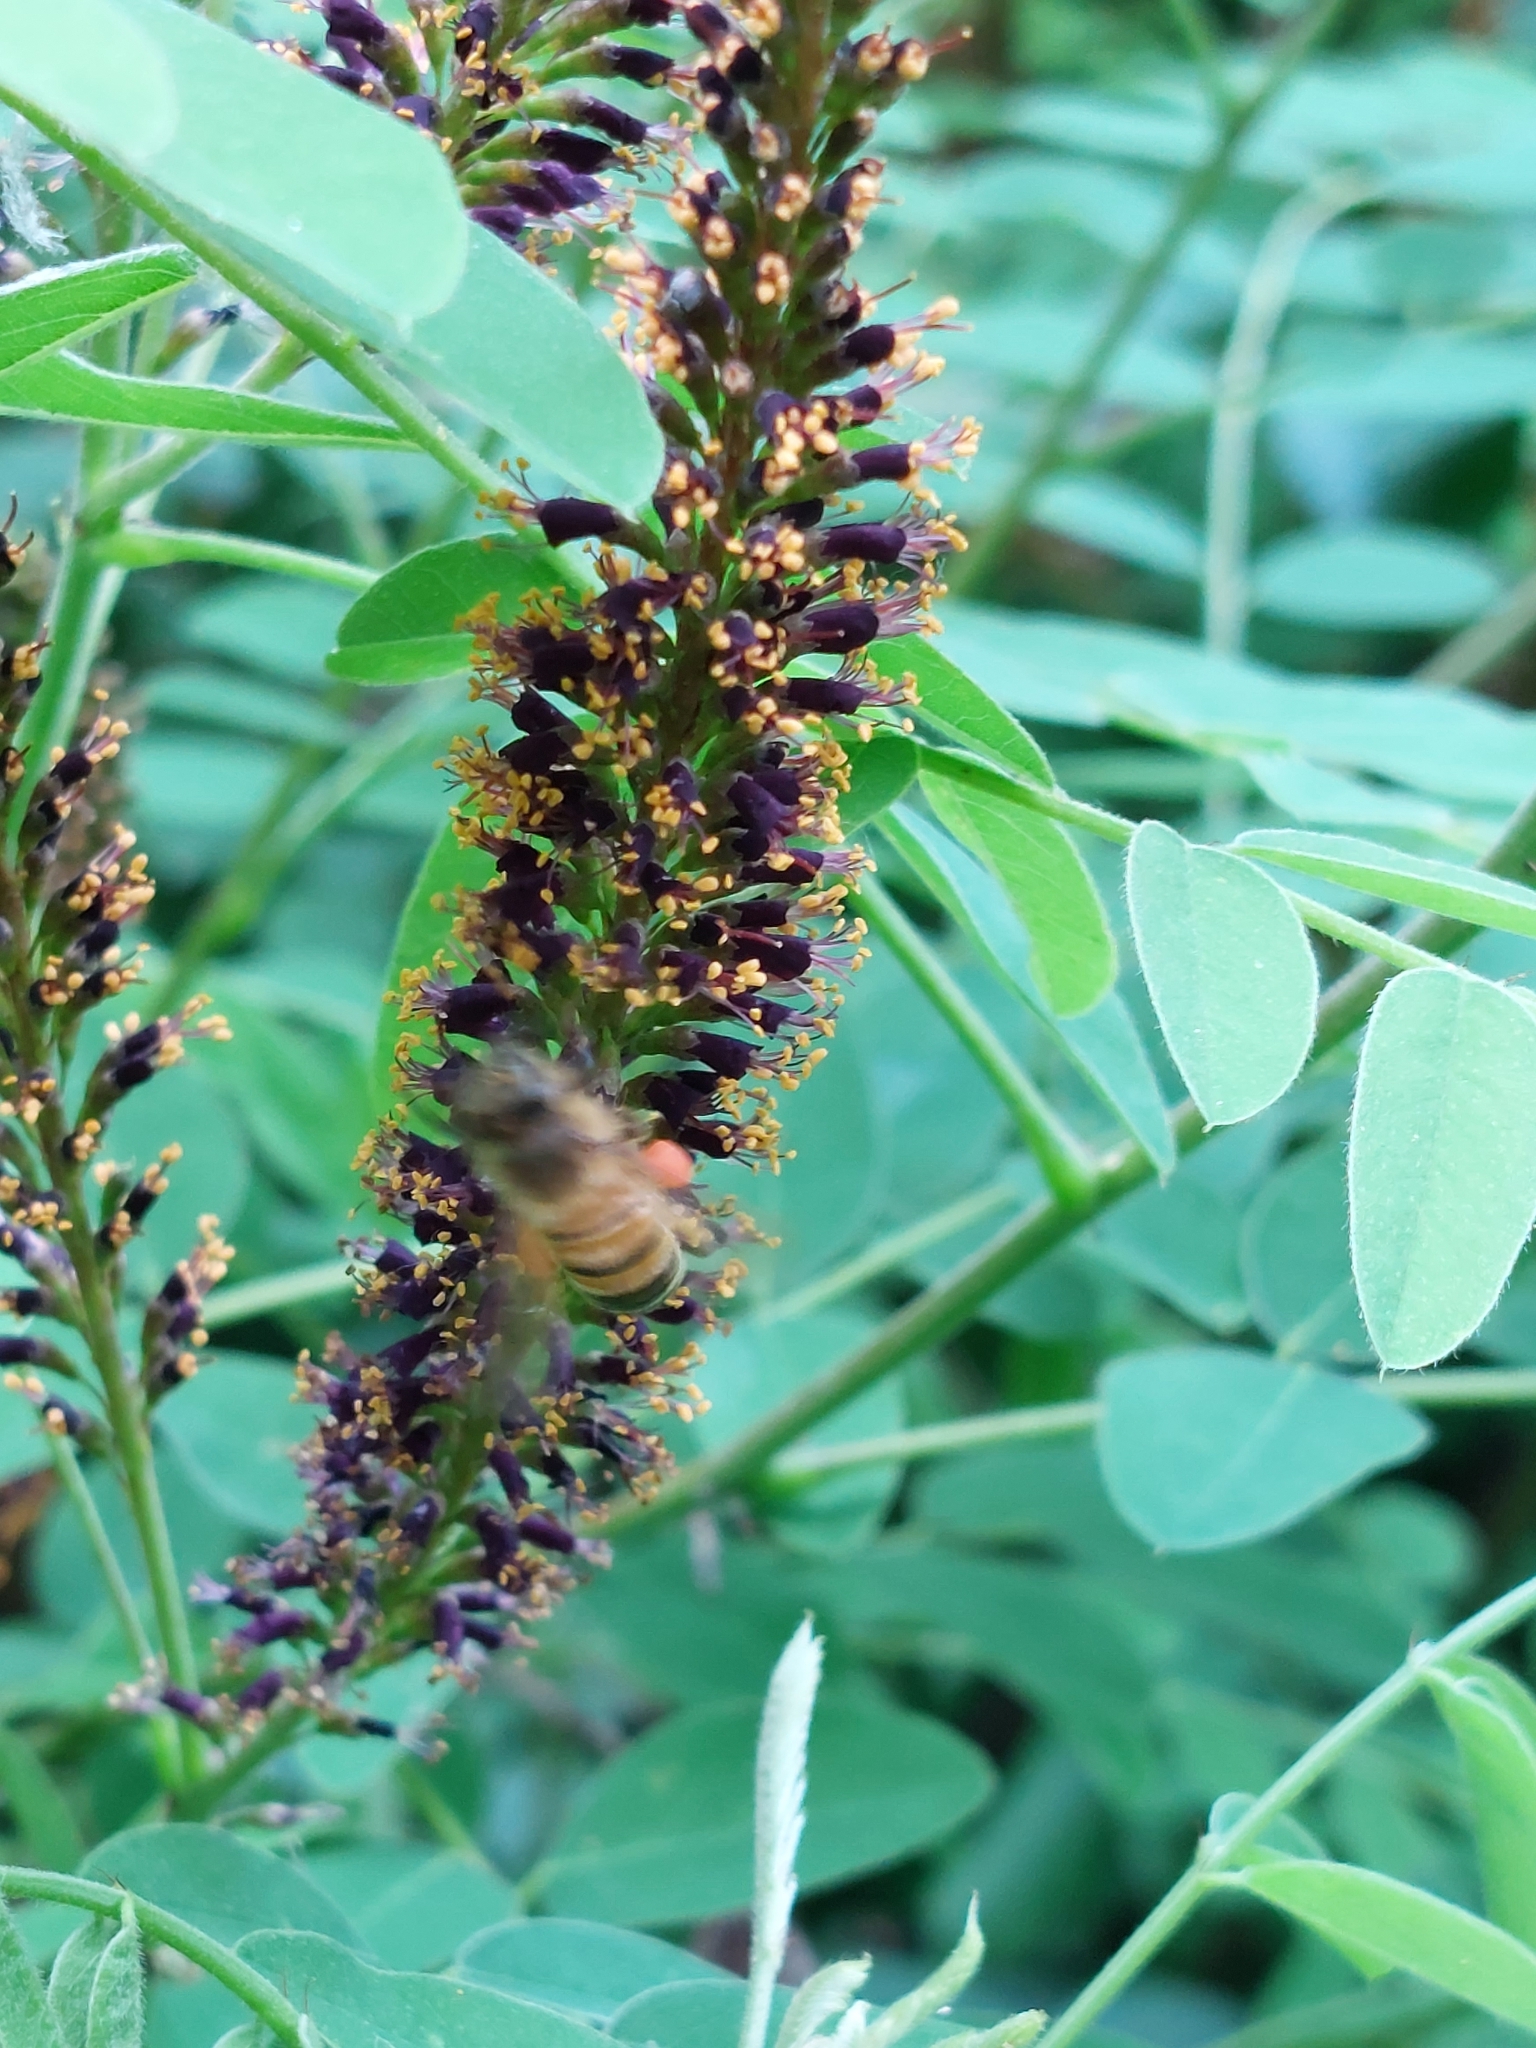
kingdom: Plantae
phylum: Tracheophyta
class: Magnoliopsida
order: Fabales
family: Fabaceae
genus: Amorpha
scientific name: Amorpha fruticosa
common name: False indigo
